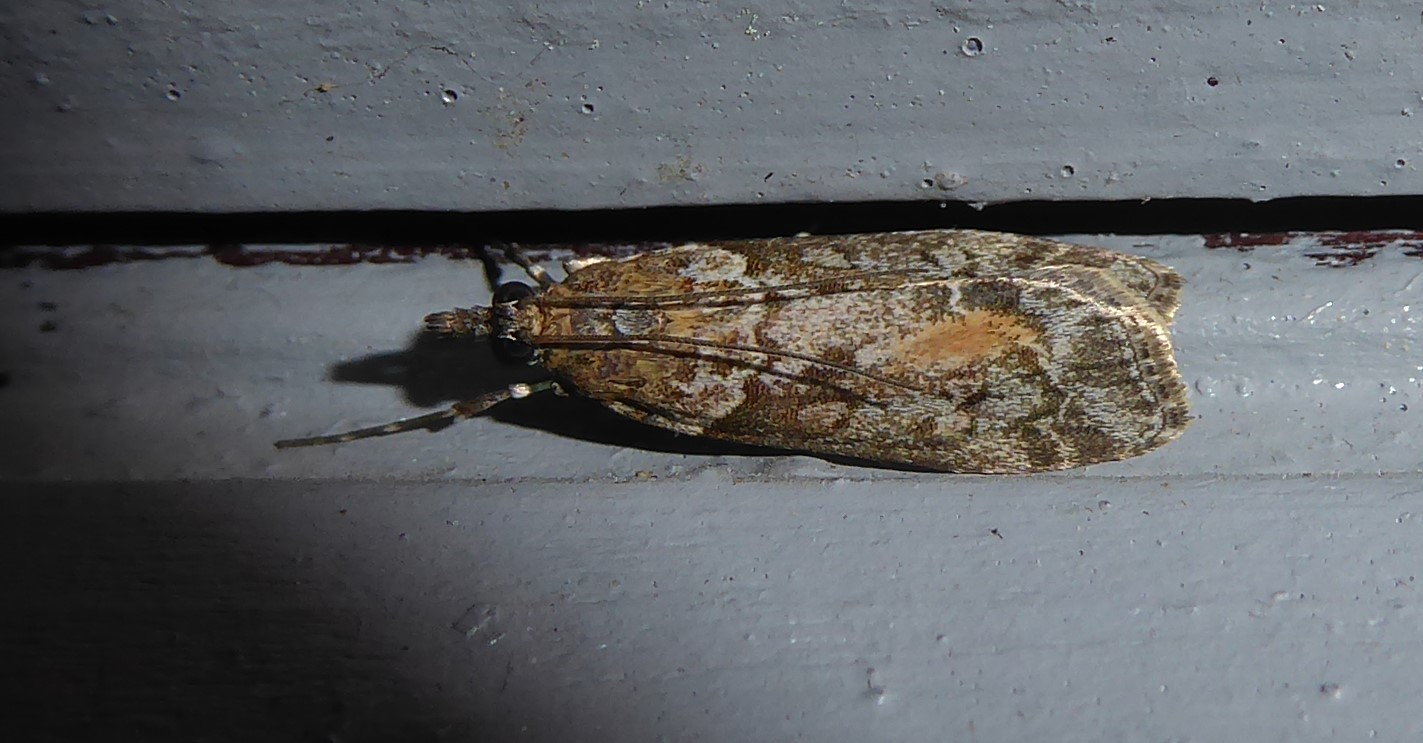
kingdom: Animalia
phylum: Arthropoda
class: Insecta
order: Lepidoptera
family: Crambidae
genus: Eudonia
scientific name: Eudonia submarginalis
